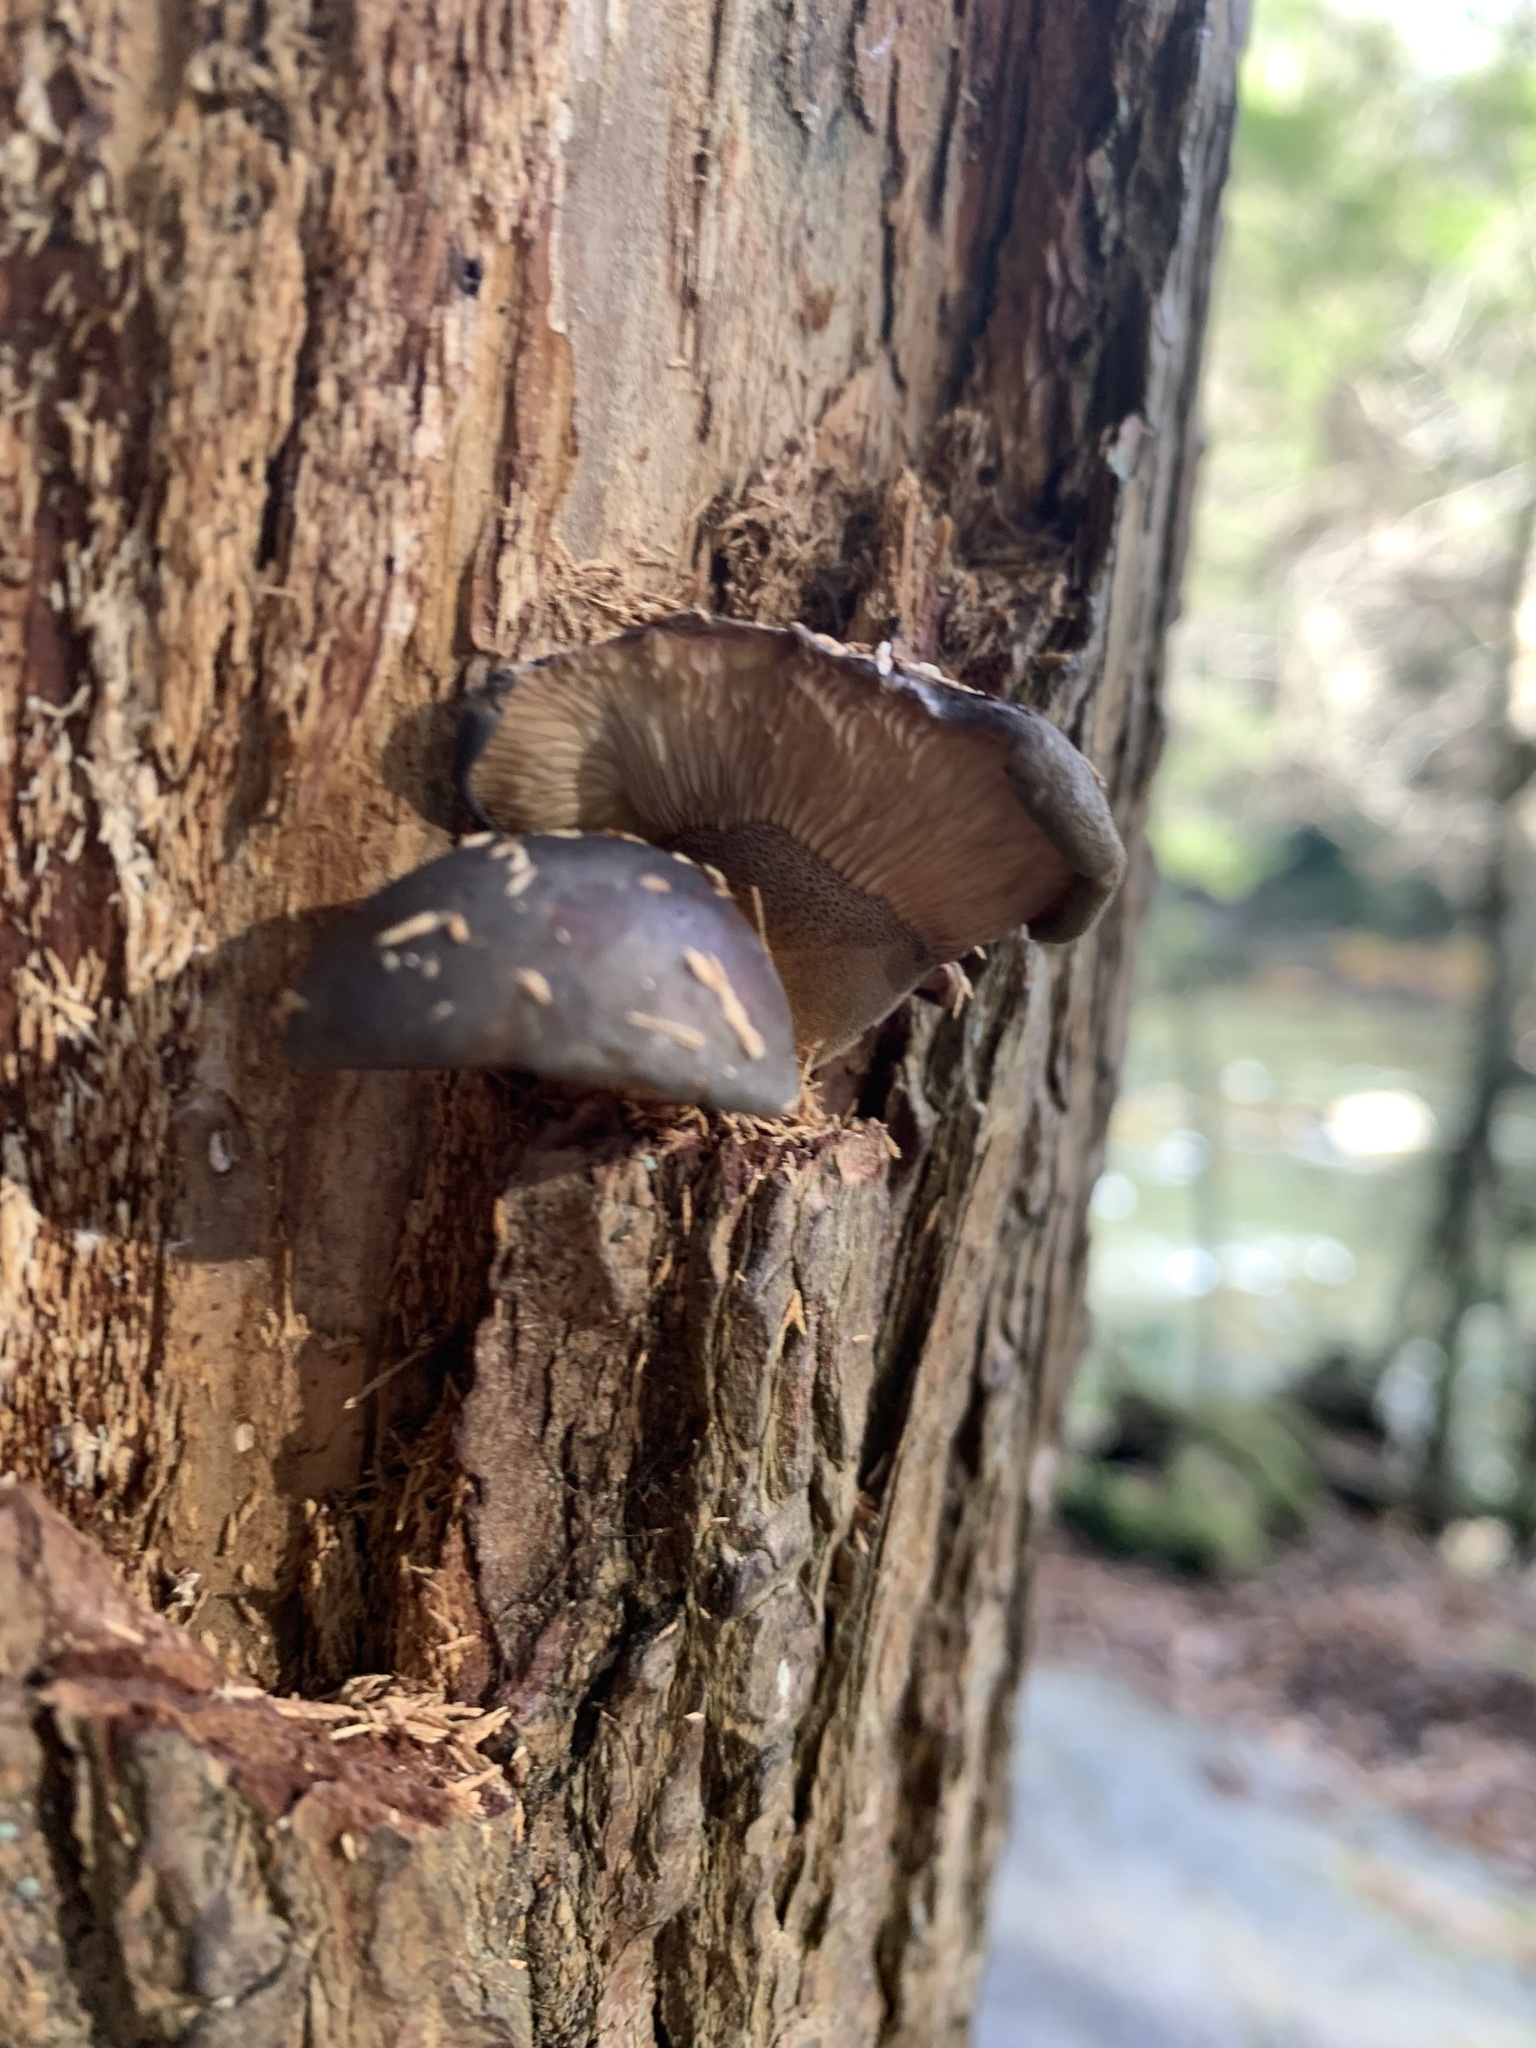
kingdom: Fungi
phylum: Basidiomycota
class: Agaricomycetes
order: Agaricales
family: Sarcomyxaceae
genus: Sarcomyxa
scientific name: Sarcomyxa serotina
